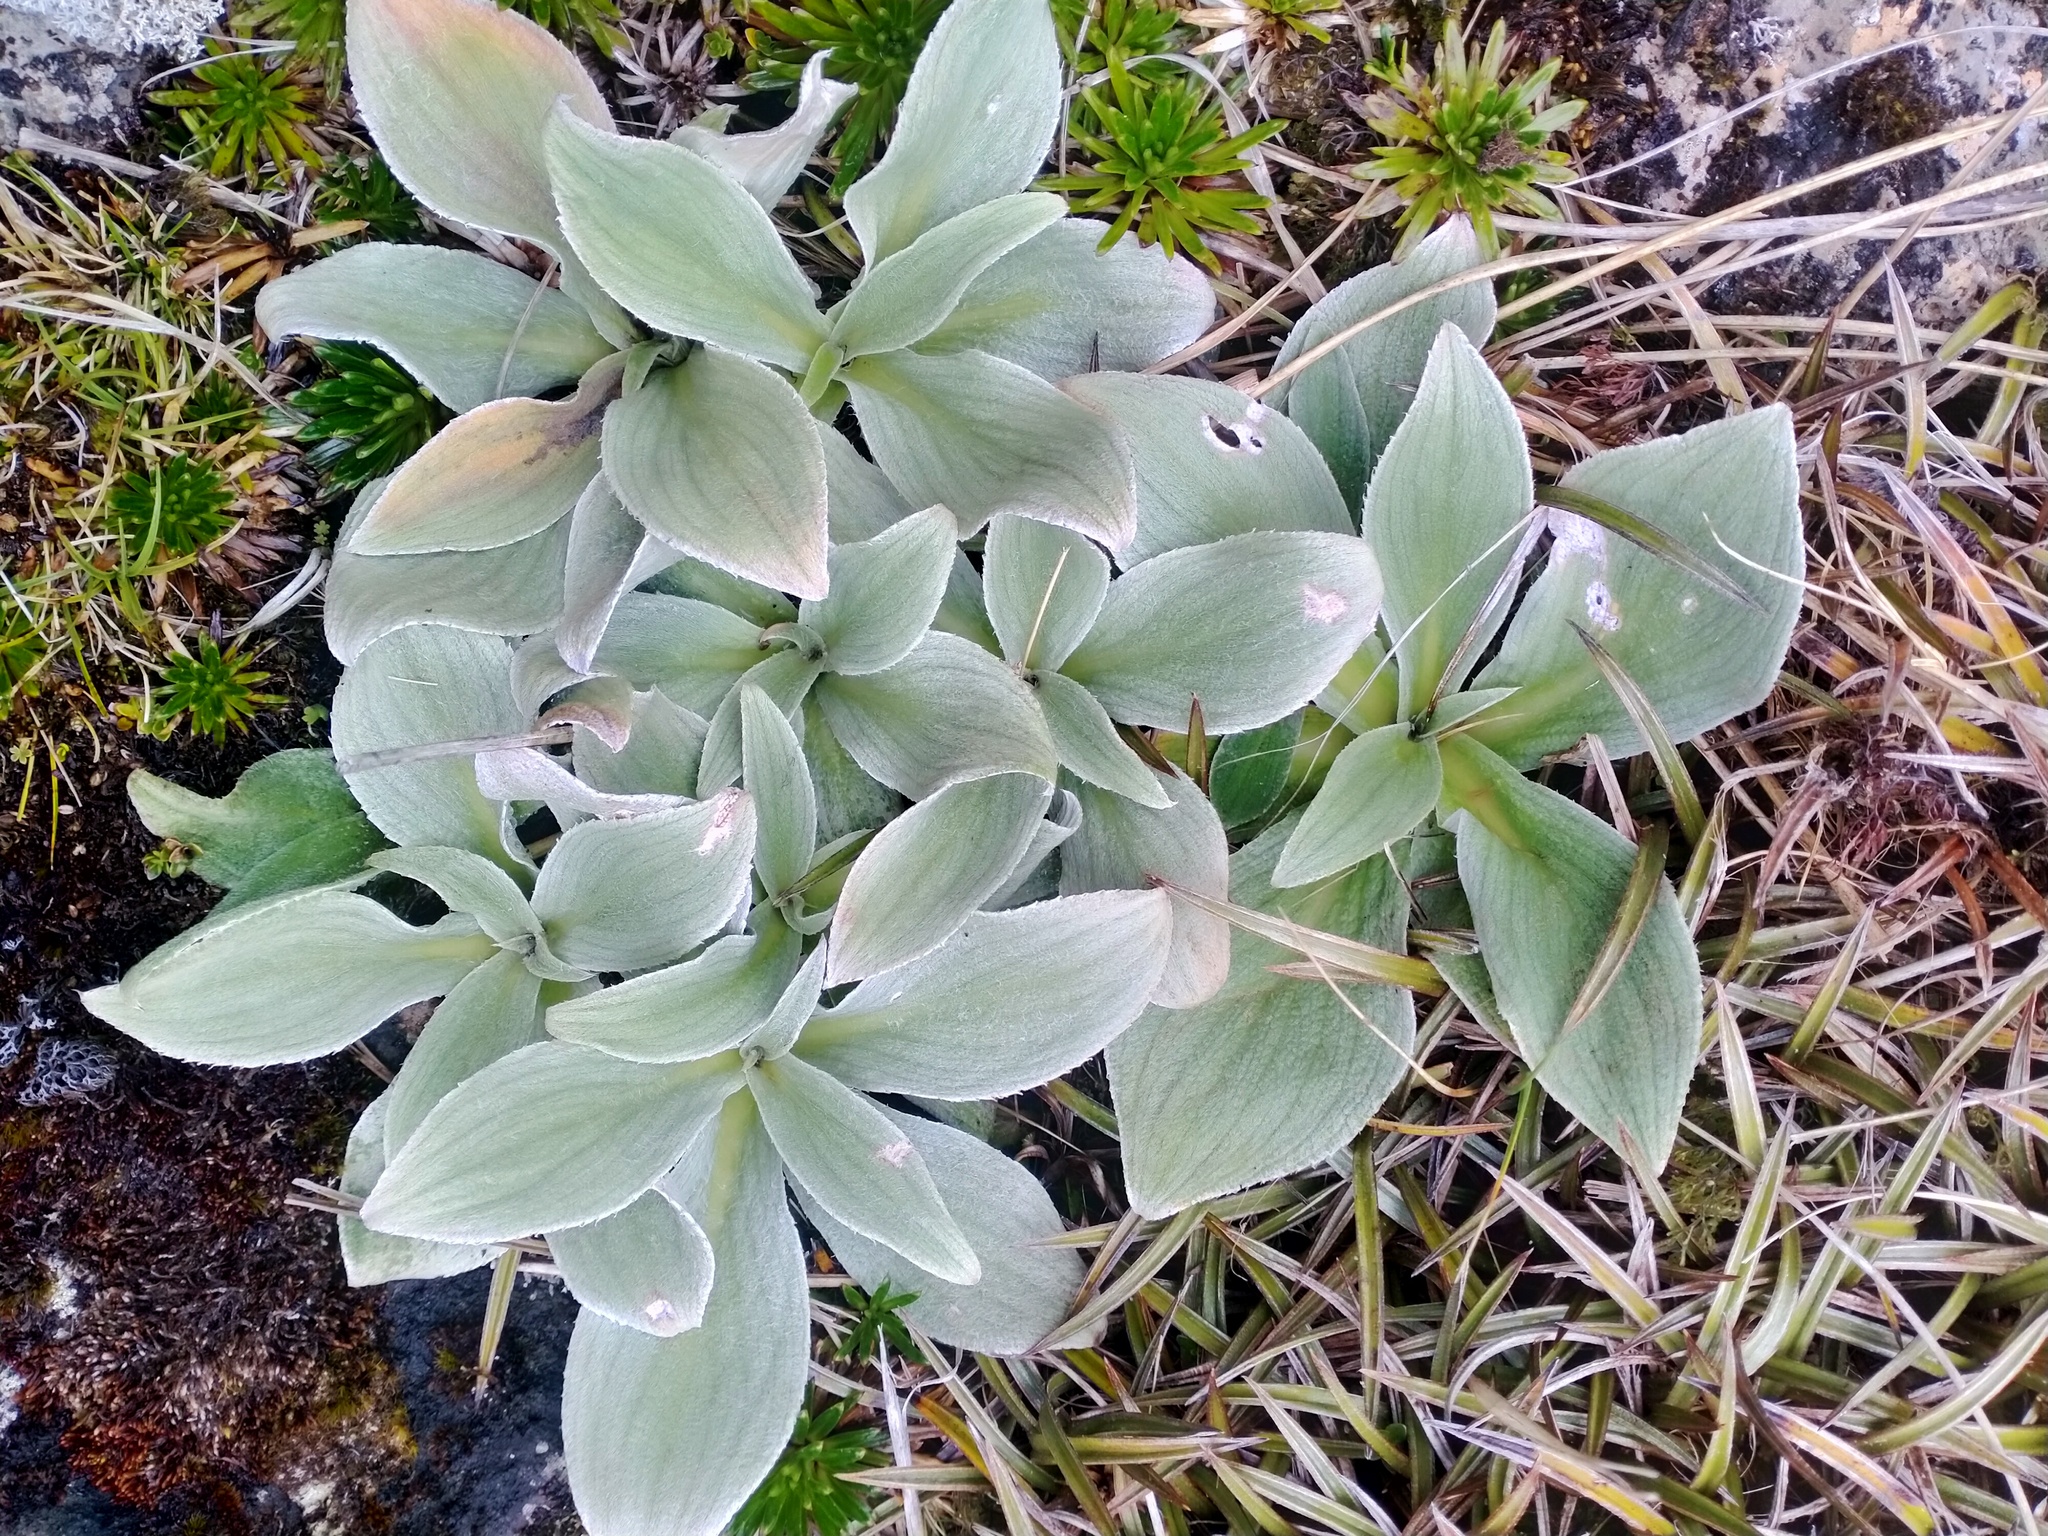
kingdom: Plantae
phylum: Tracheophyta
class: Magnoliopsida
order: Asterales
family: Asteraceae
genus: Pleurophyllum
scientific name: Pleurophyllum hookeri
